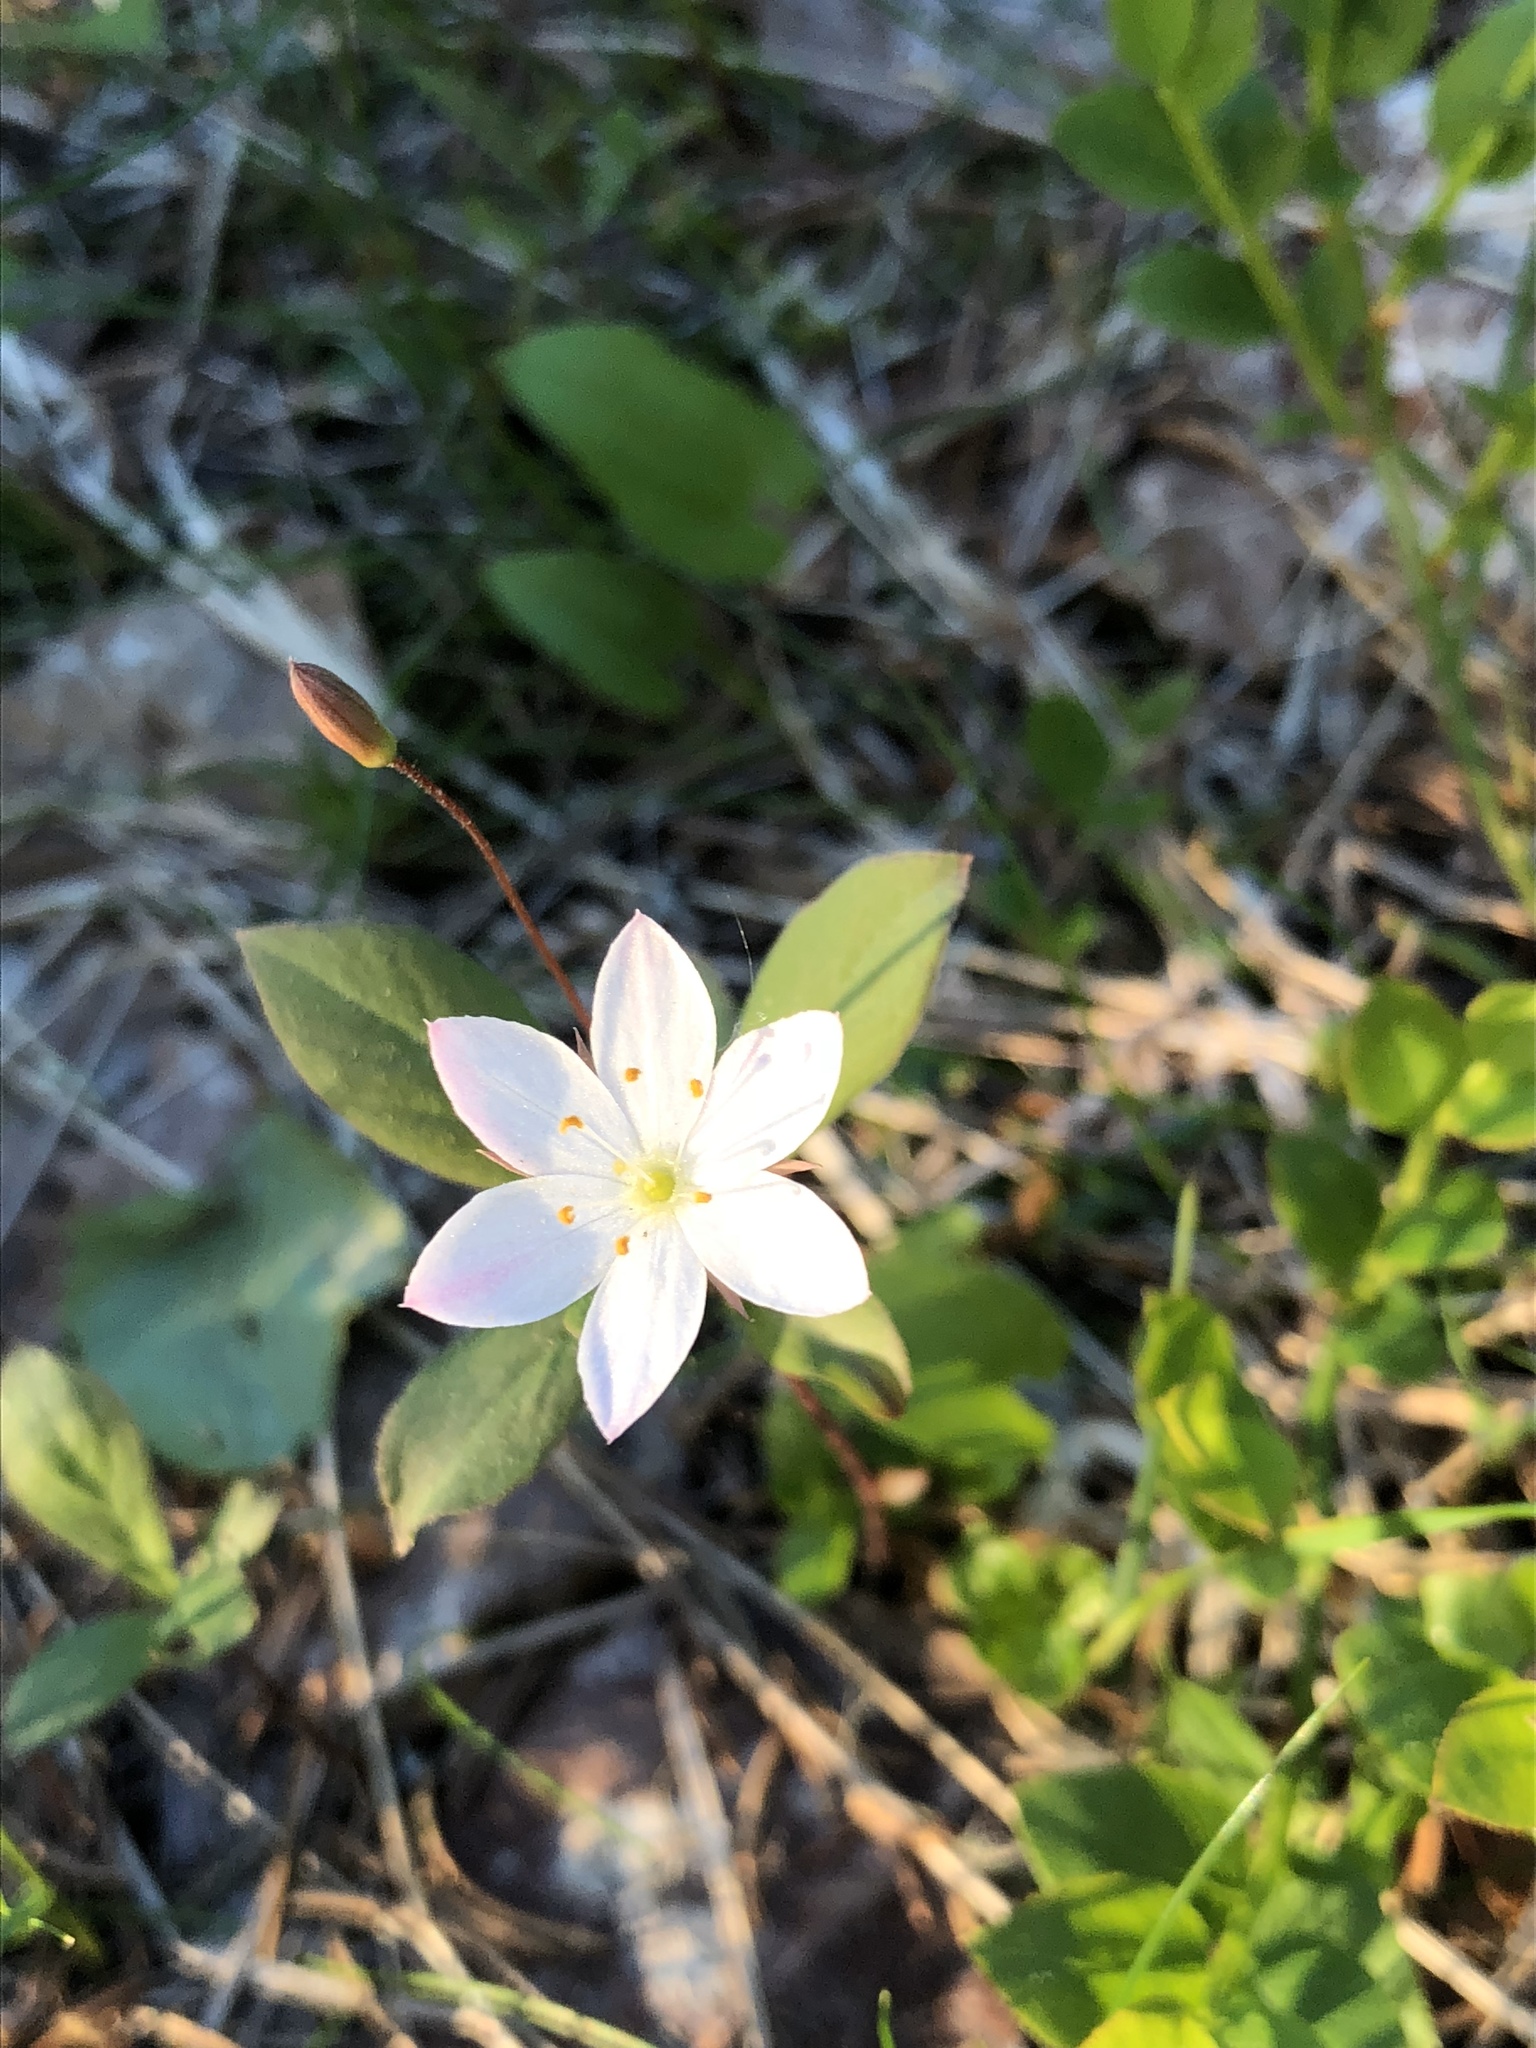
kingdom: Plantae
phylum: Tracheophyta
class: Magnoliopsida
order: Ericales
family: Primulaceae
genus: Lysimachia
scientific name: Lysimachia europaea
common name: Arctic starflower
